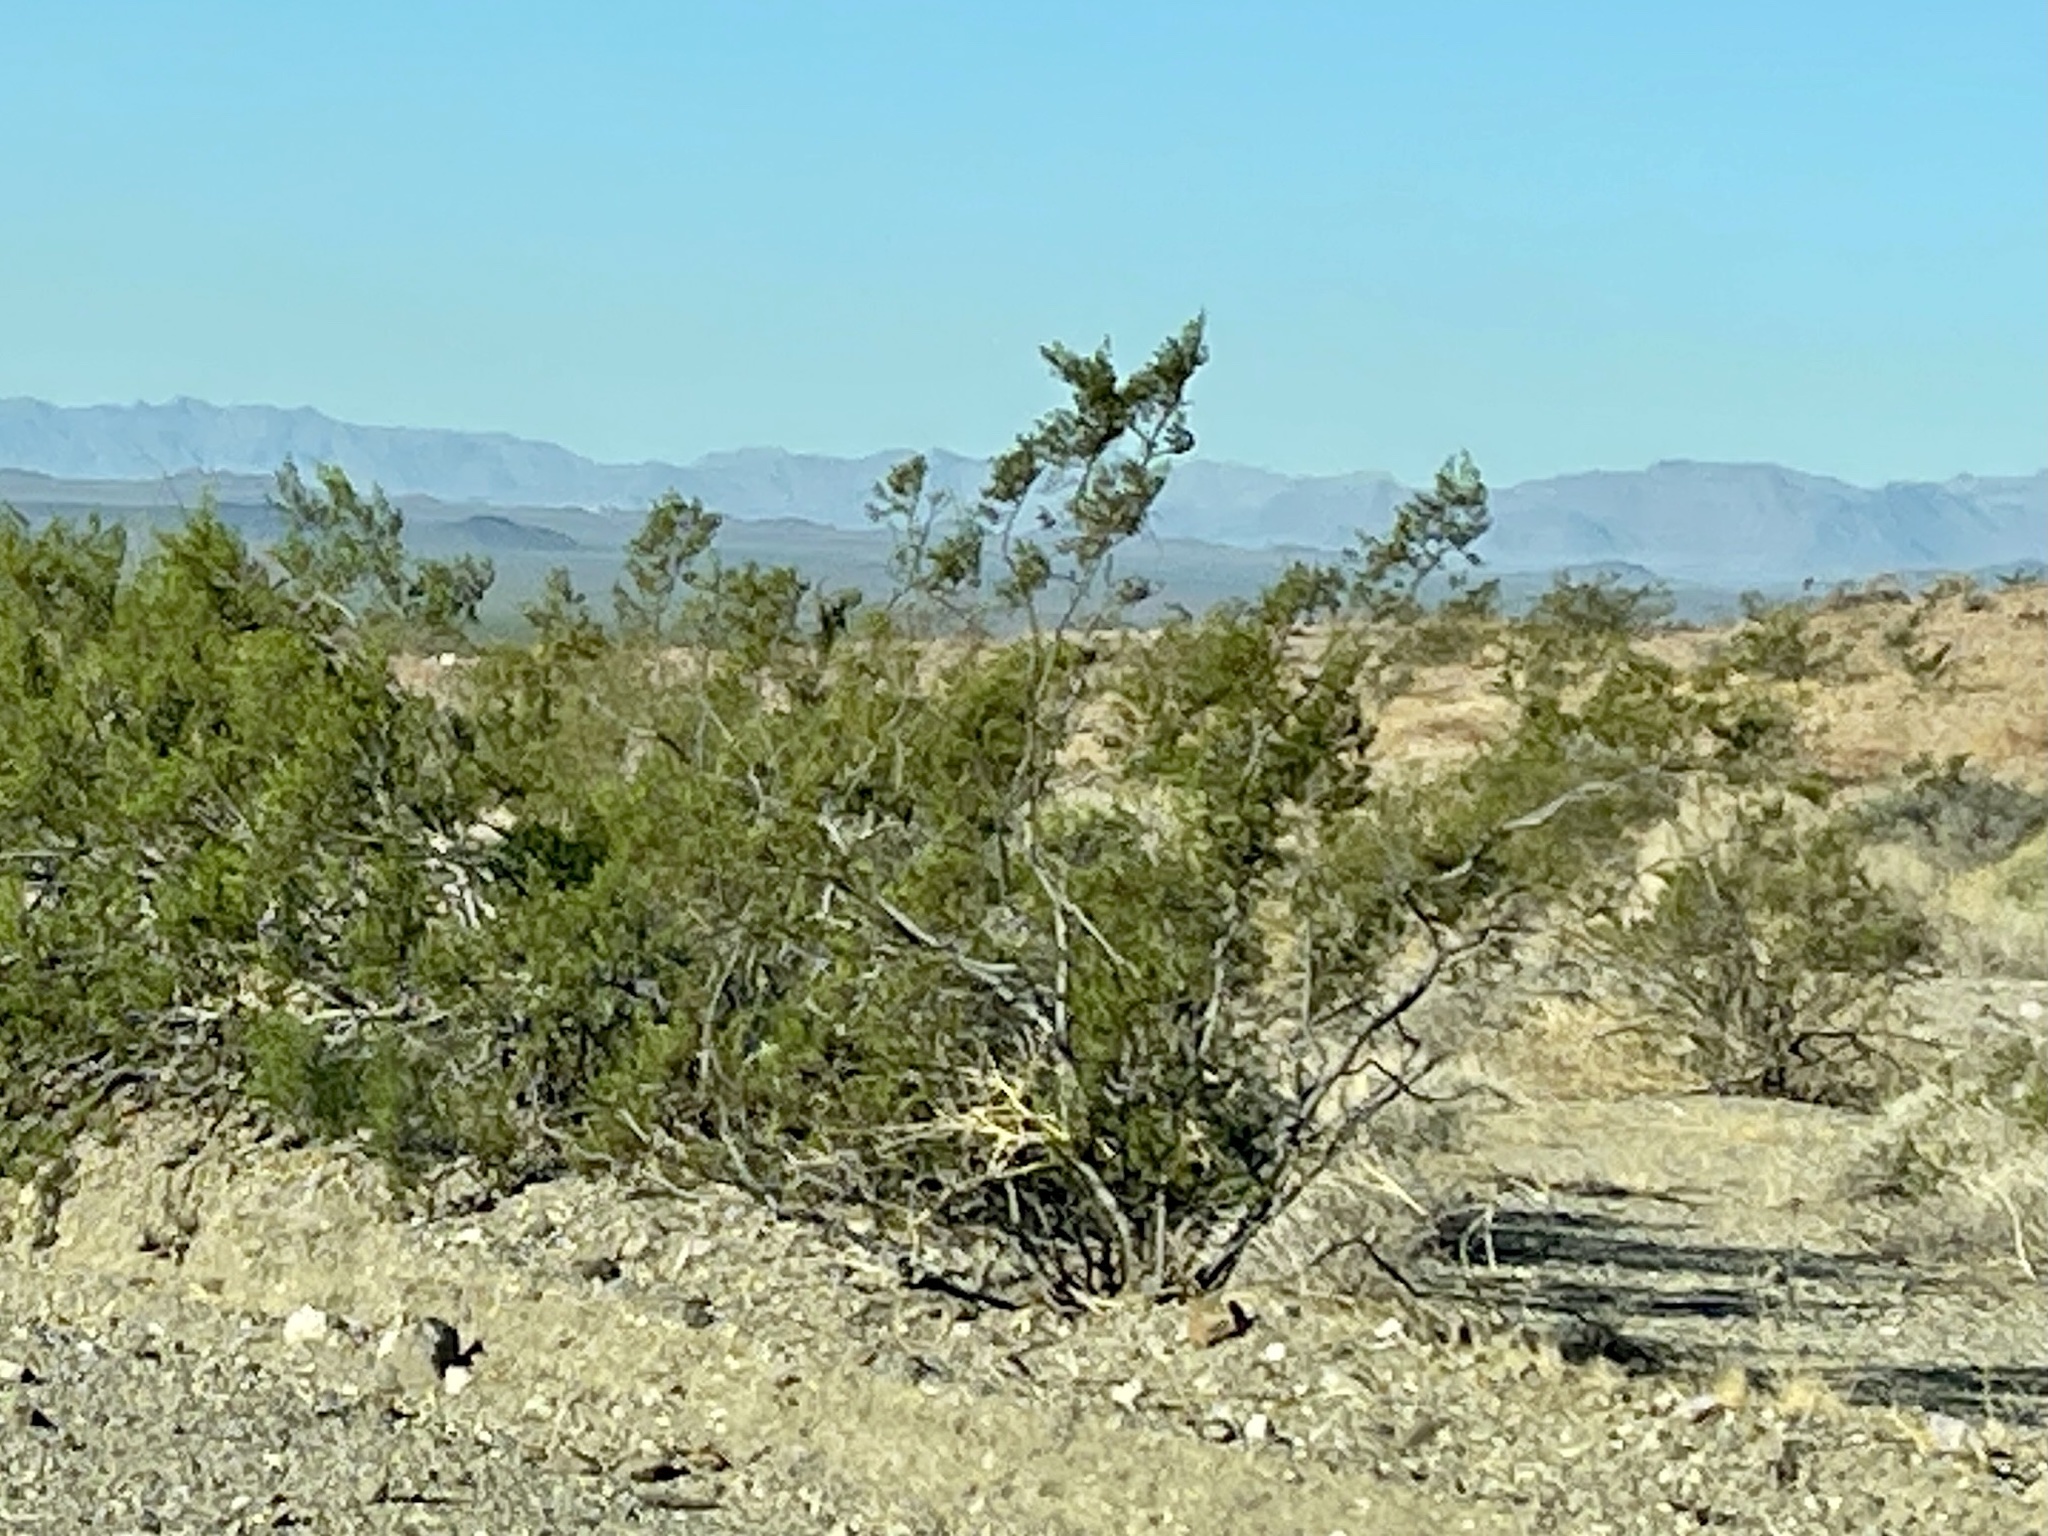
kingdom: Plantae
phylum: Tracheophyta
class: Magnoliopsida
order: Zygophyllales
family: Zygophyllaceae
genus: Larrea
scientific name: Larrea tridentata
